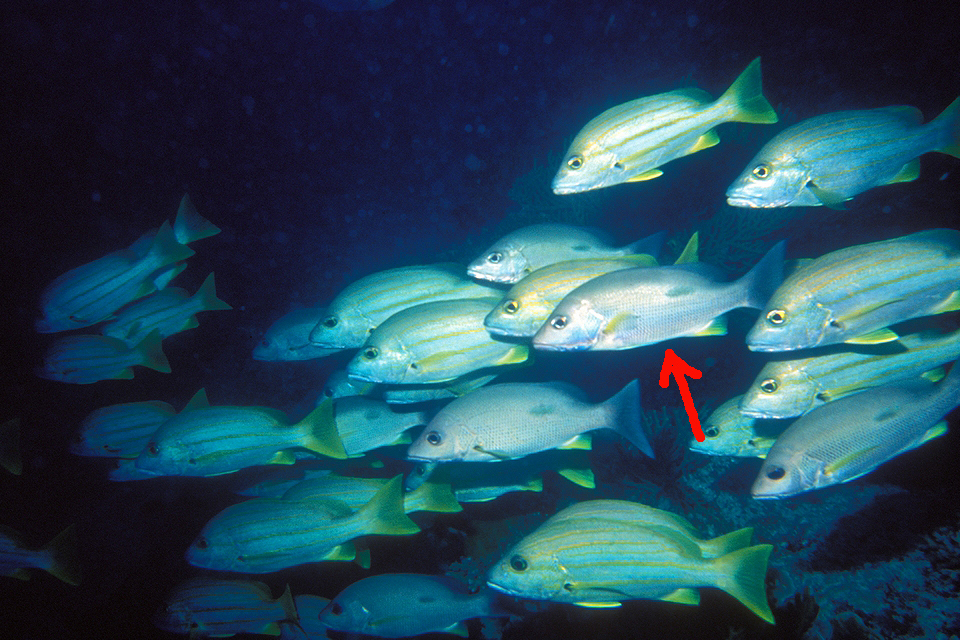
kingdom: Animalia
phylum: Chordata
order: Perciformes
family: Lutjanidae
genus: Lutjanus
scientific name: Lutjanus russellii
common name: Russell's snapper
